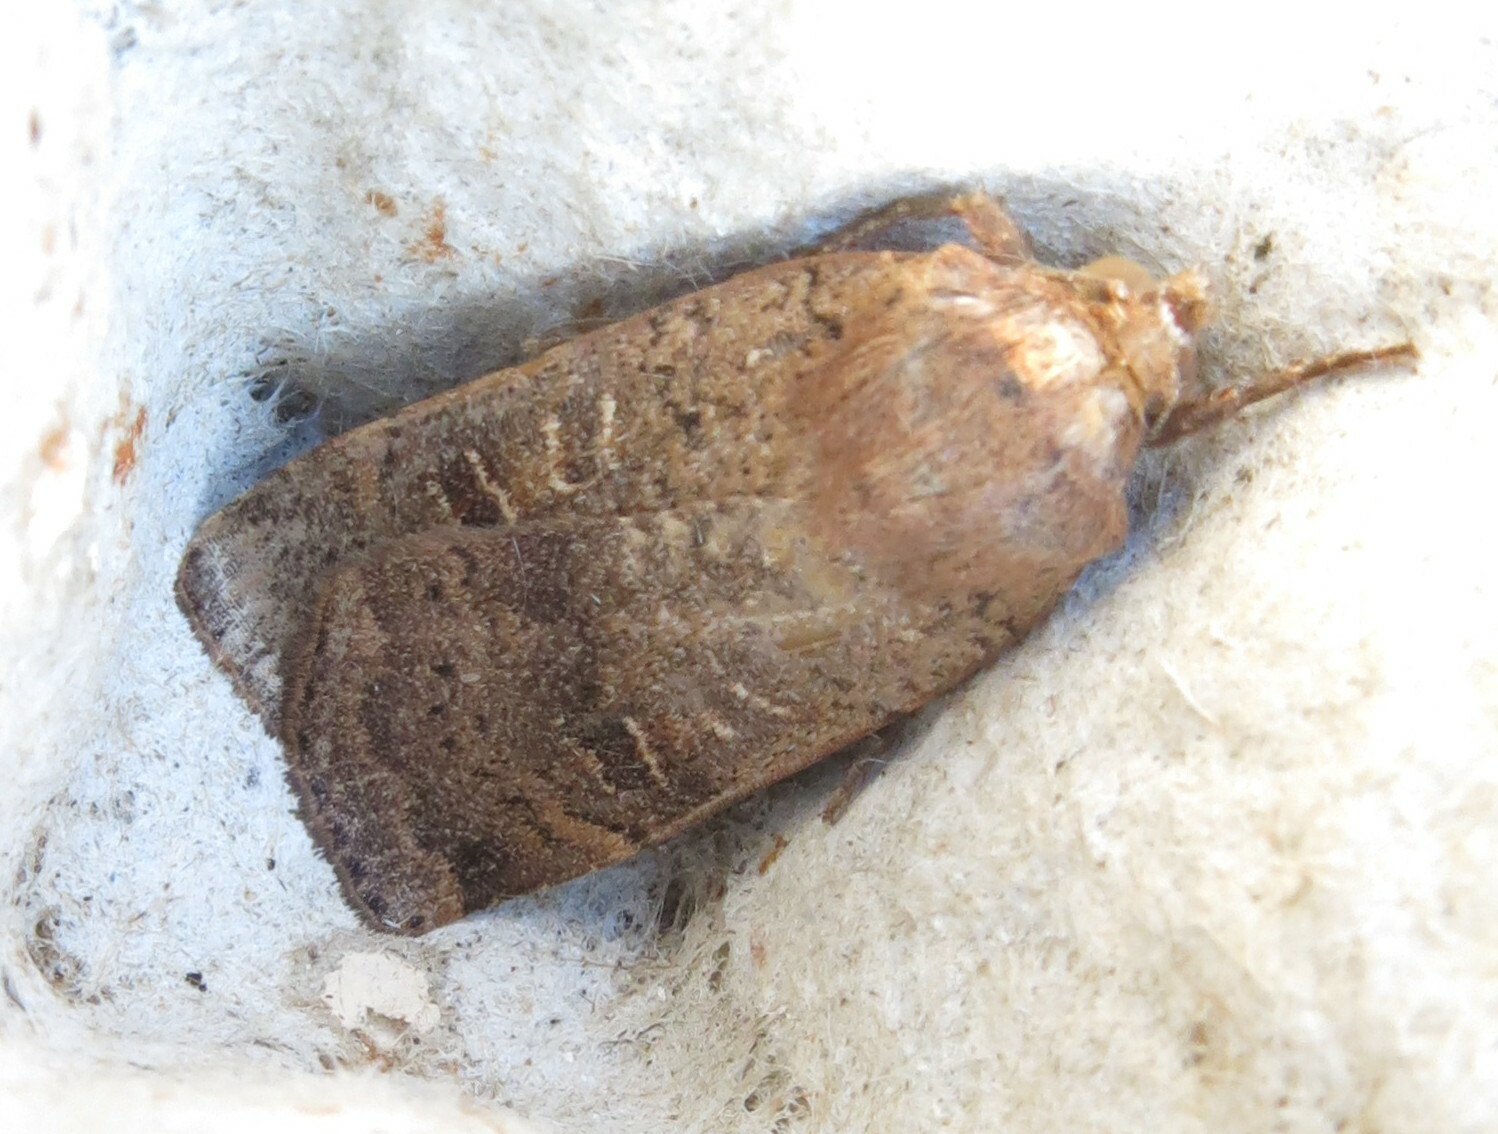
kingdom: Animalia
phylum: Arthropoda
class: Insecta
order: Lepidoptera
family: Noctuidae
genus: Noctua
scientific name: Noctua comes
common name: Lesser yellow underwing
